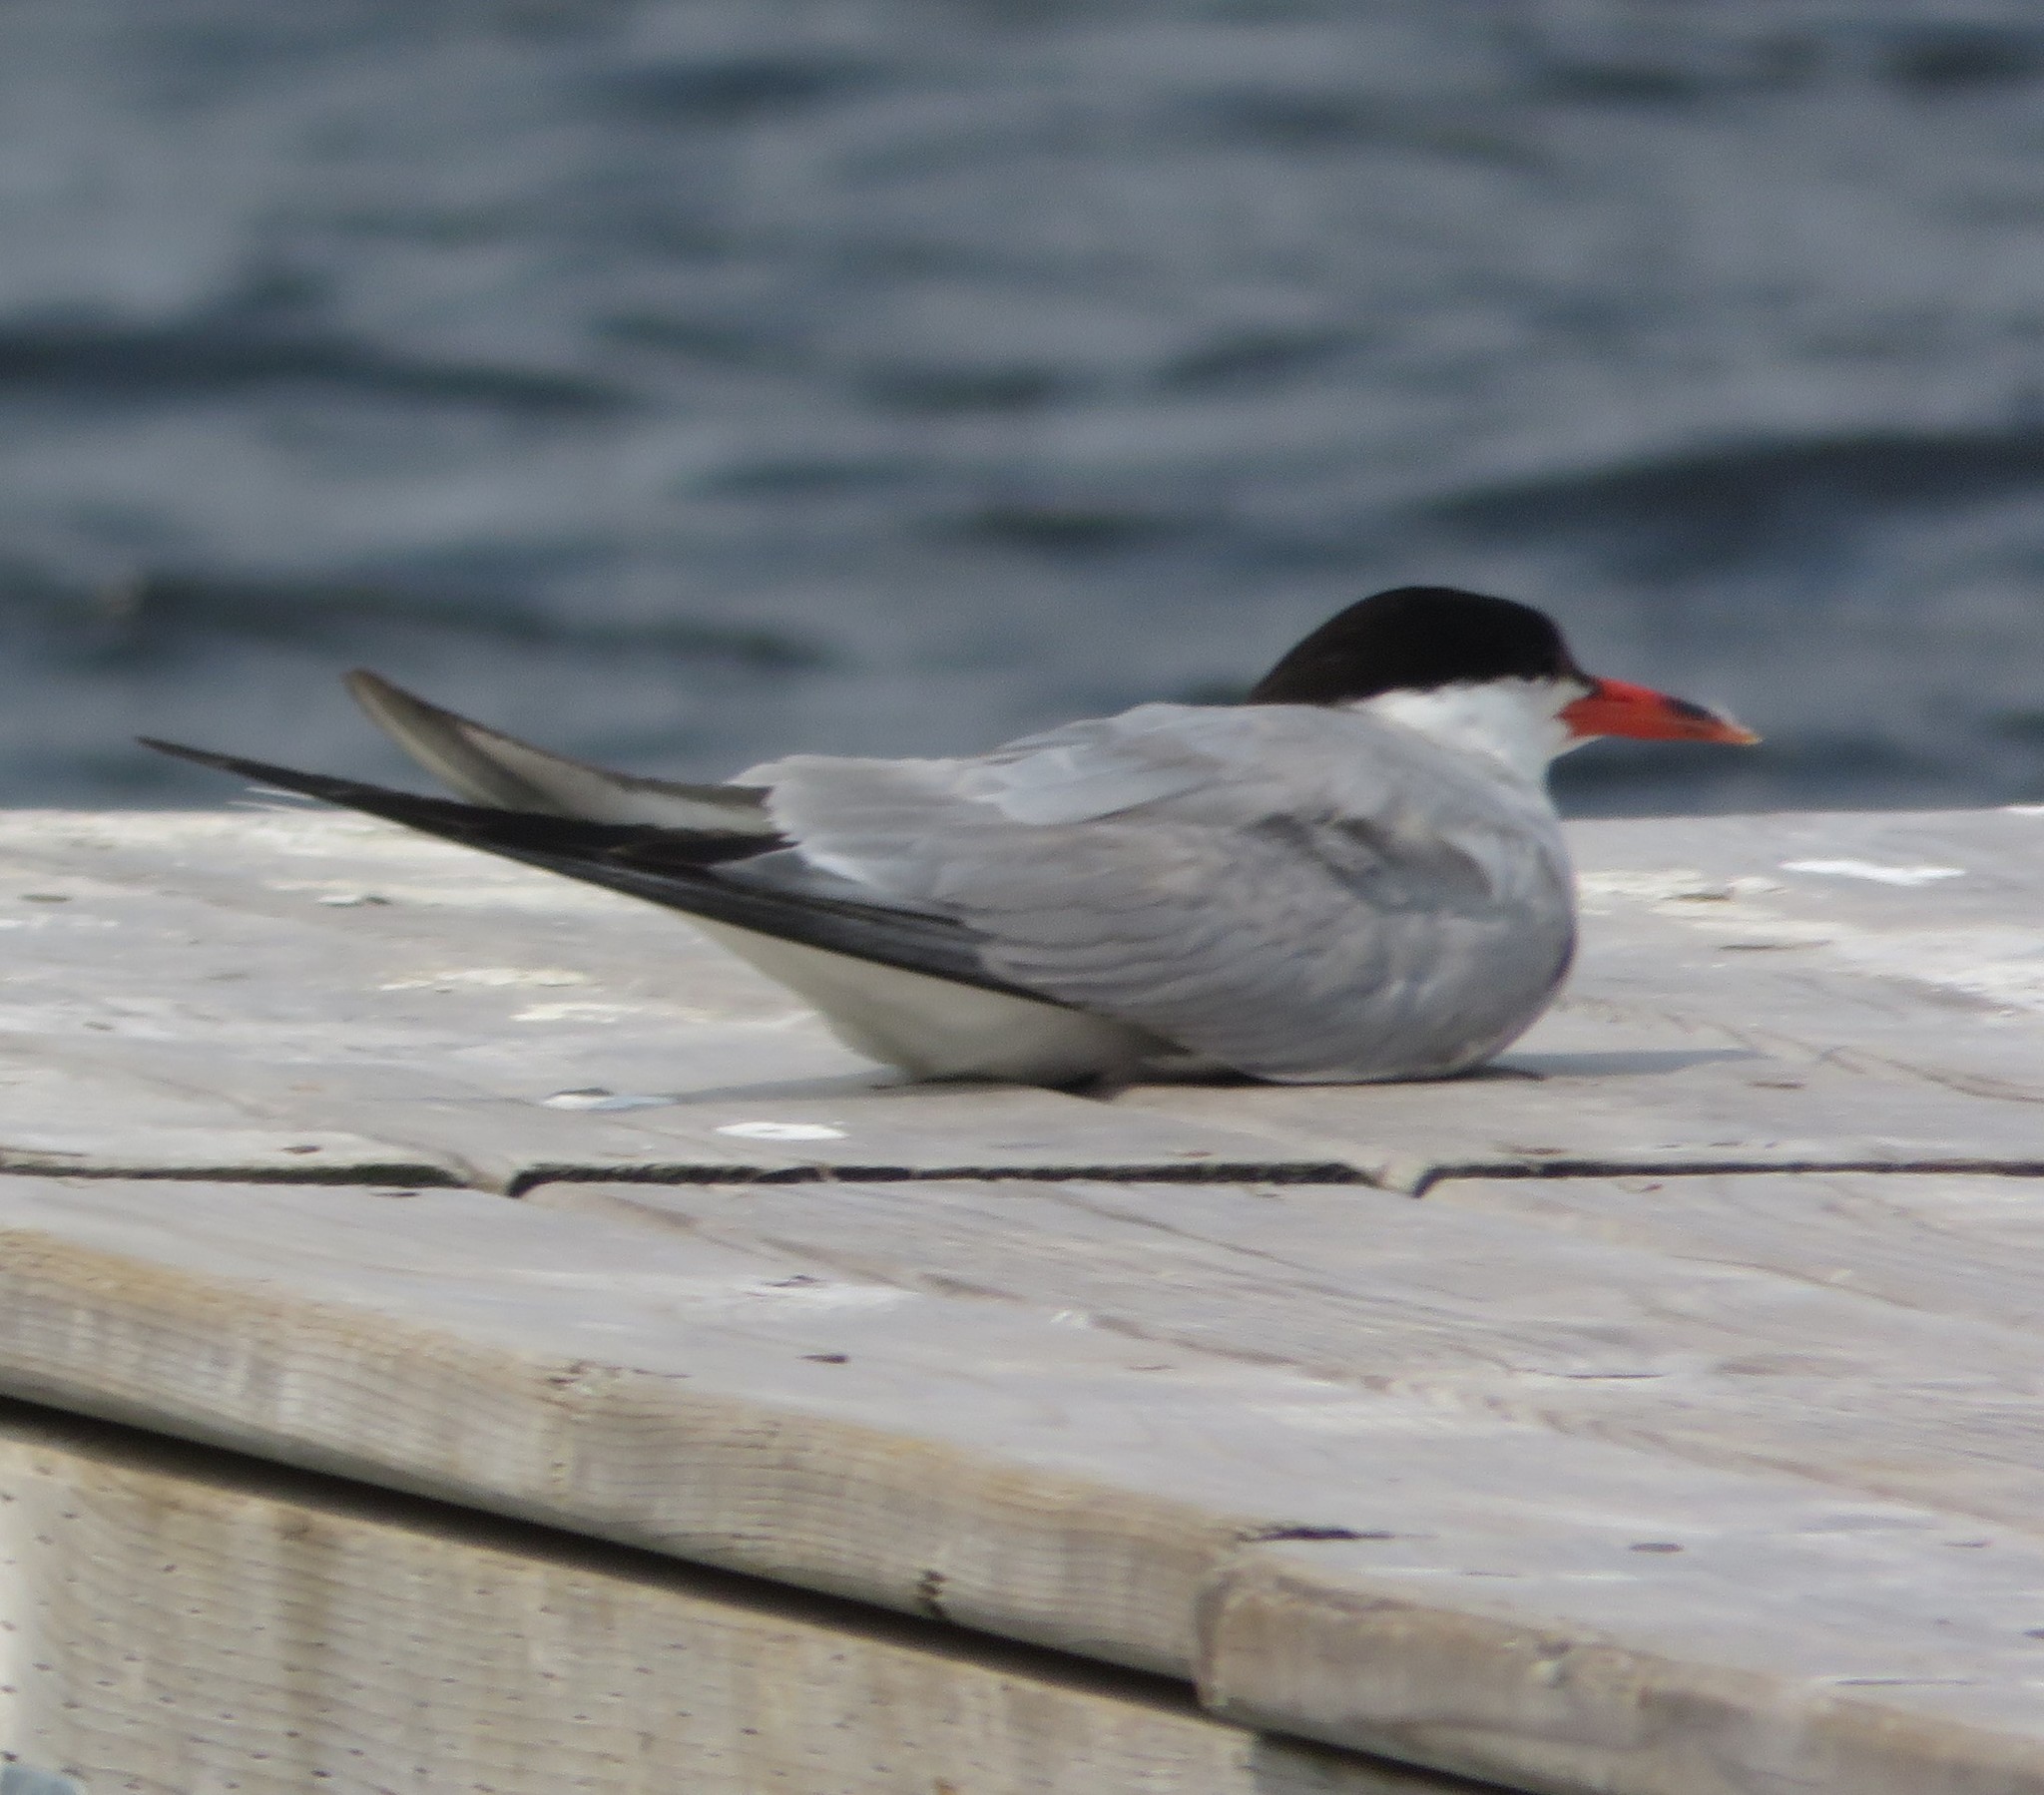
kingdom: Animalia
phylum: Chordata
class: Aves
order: Charadriiformes
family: Laridae
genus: Sterna
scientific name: Sterna hirundo
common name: Common tern
